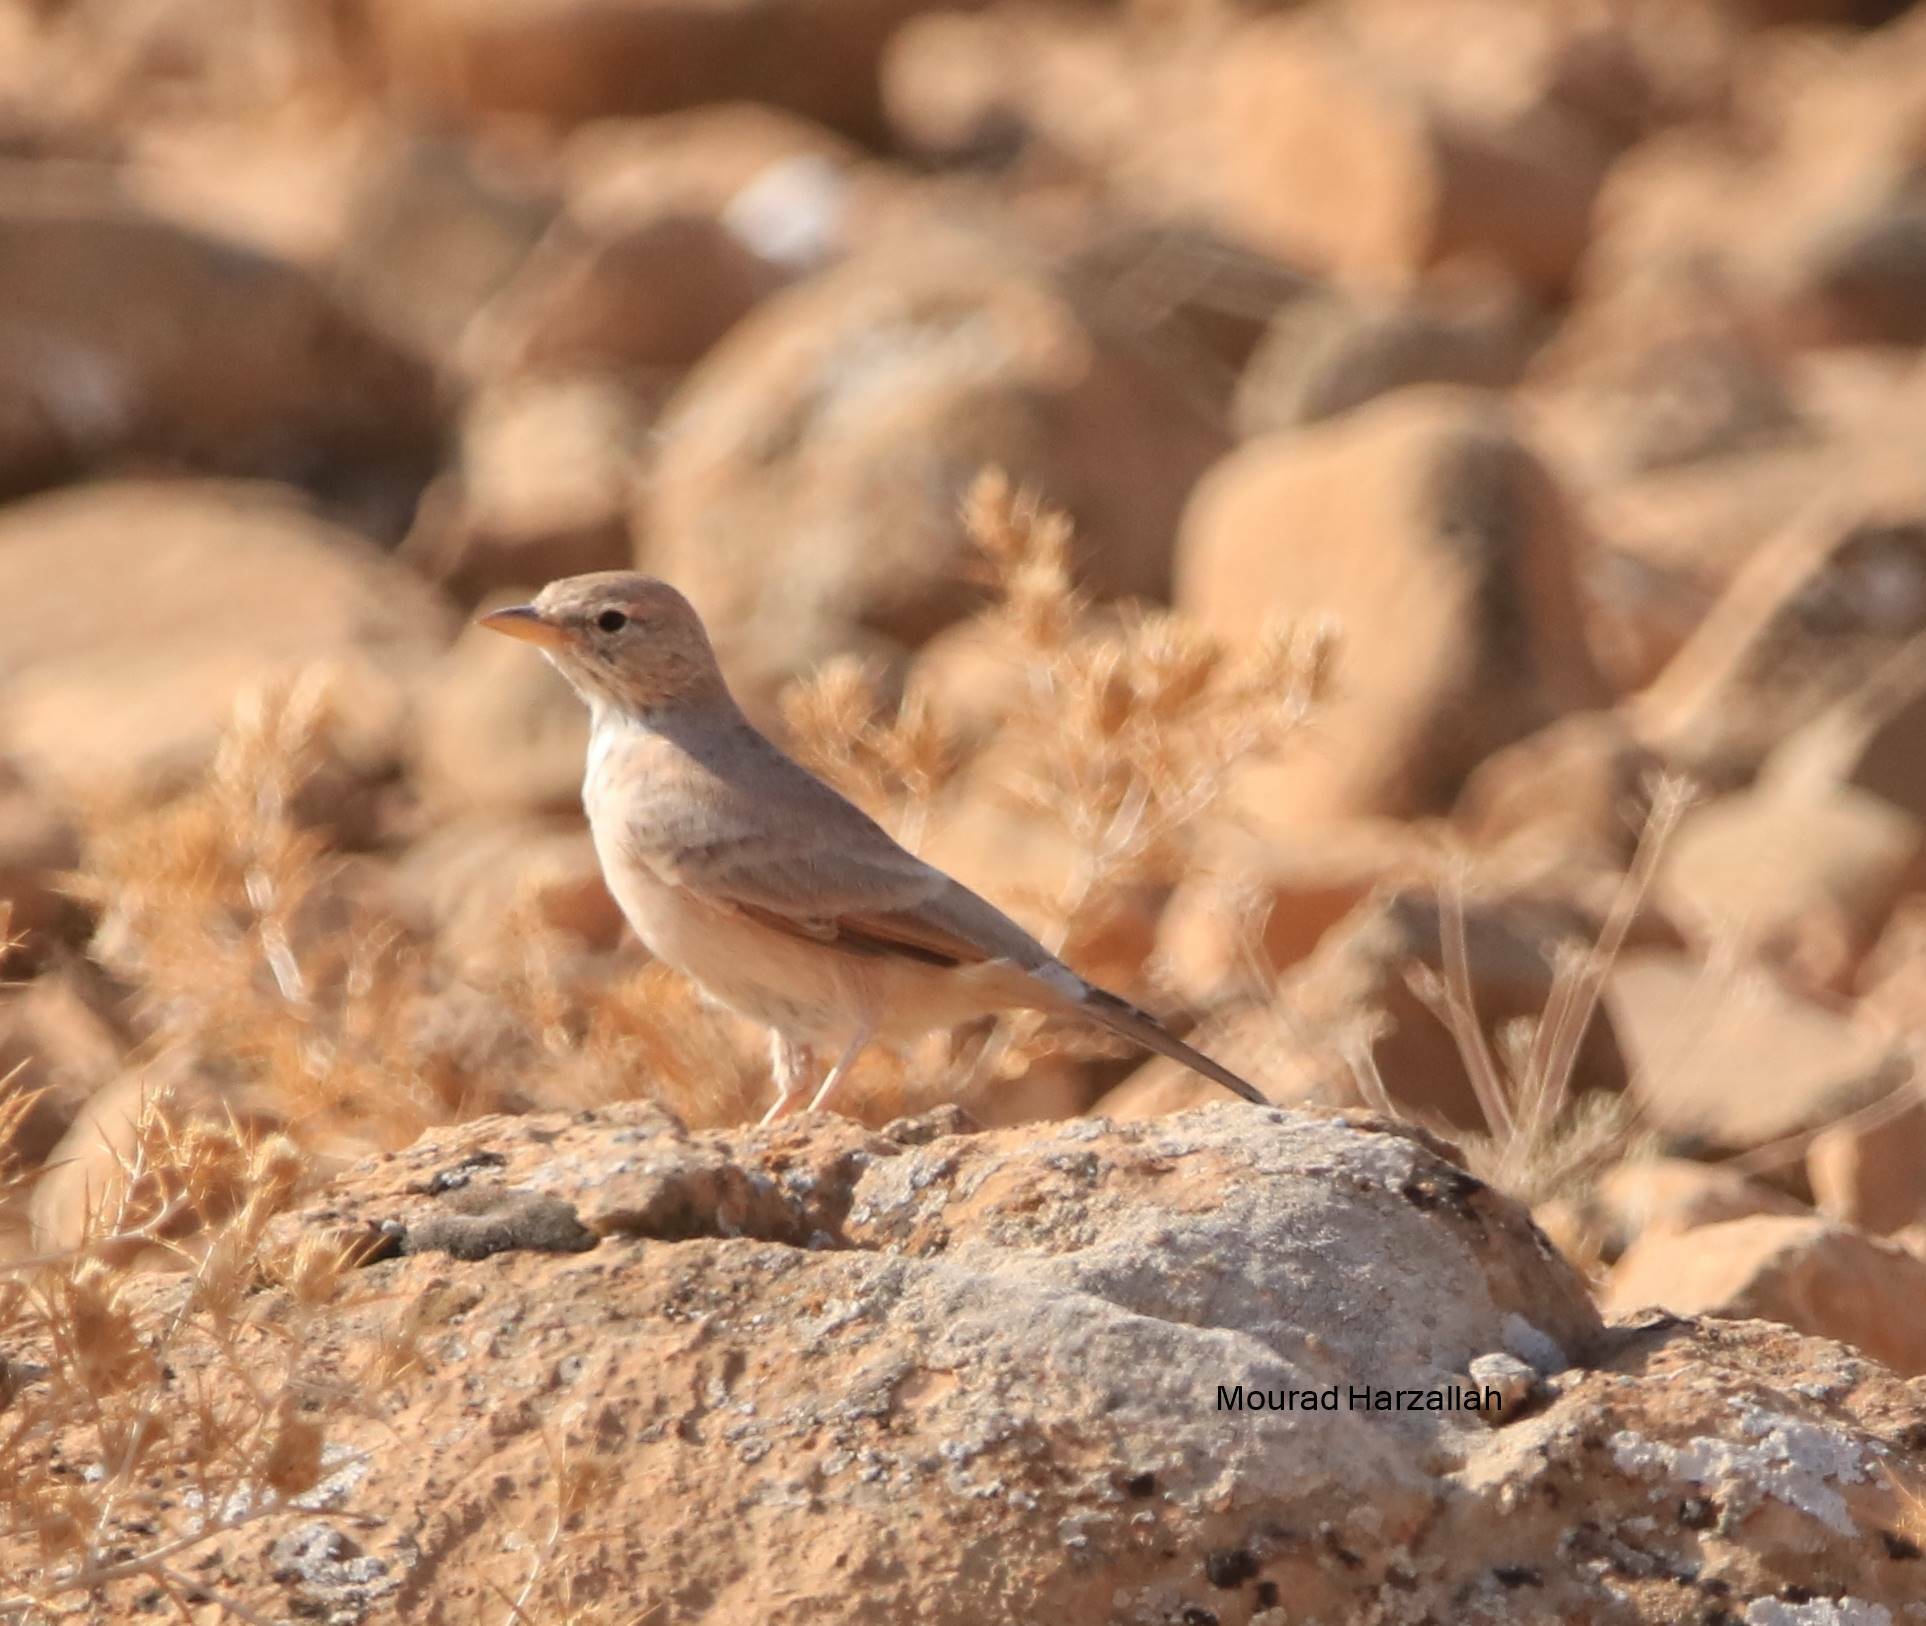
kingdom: Animalia
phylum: Chordata
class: Aves
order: Passeriformes
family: Alaudidae
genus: Ammomanes
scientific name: Ammomanes deserti
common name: Desert lark
